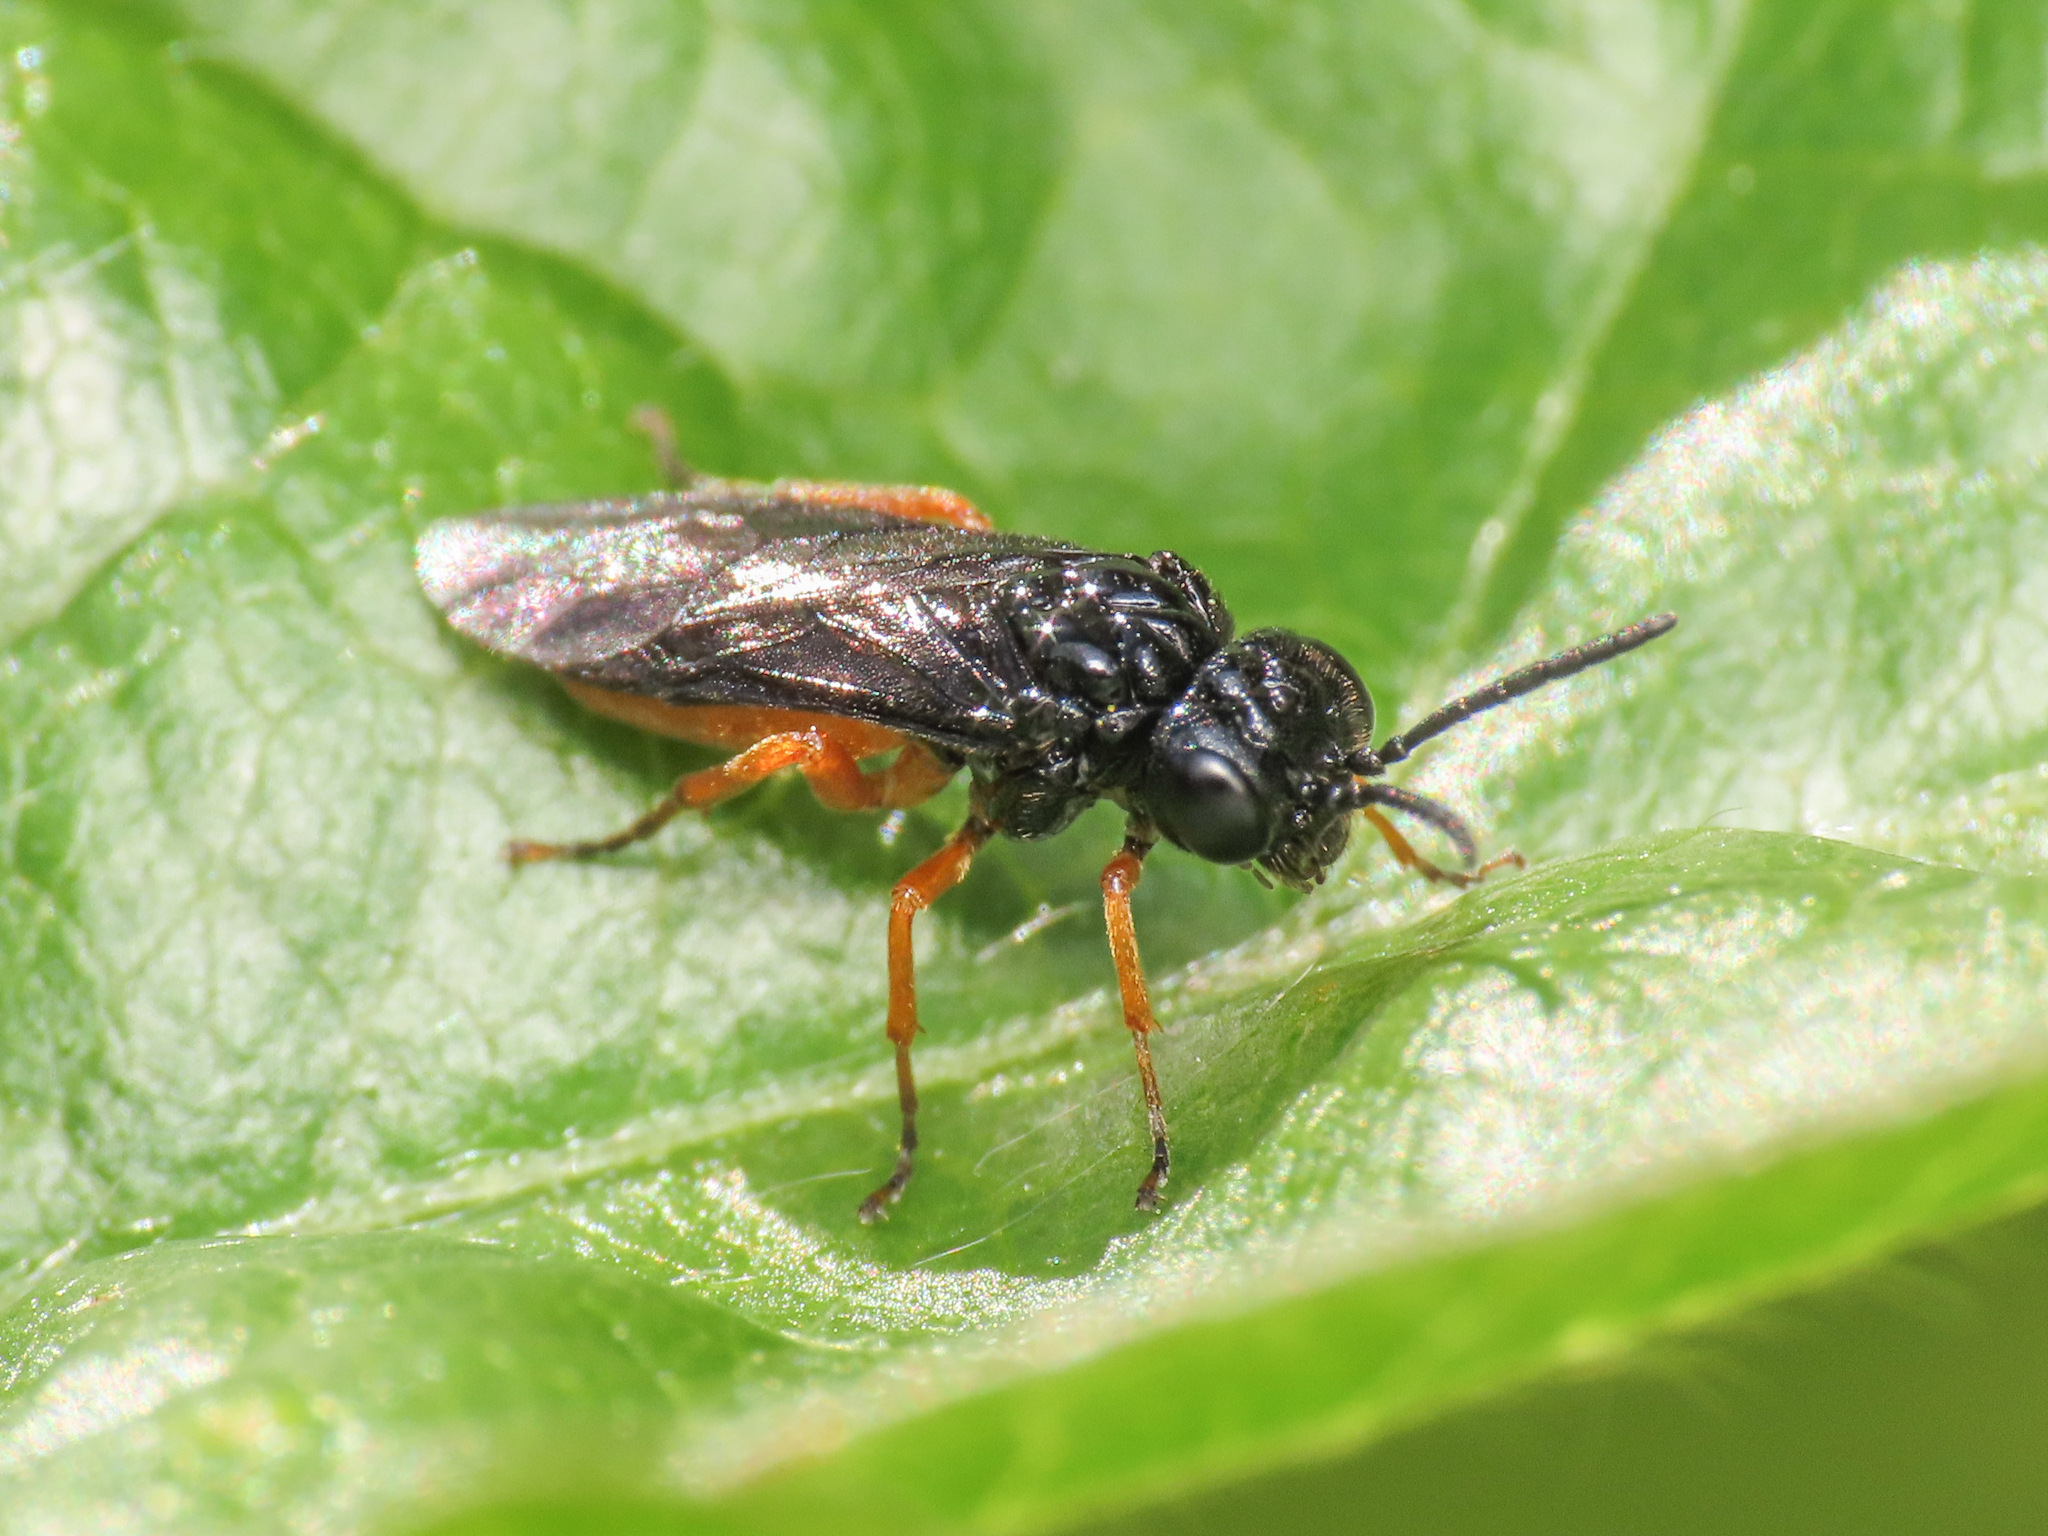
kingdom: Animalia
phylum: Arthropoda
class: Insecta
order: Hymenoptera
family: Tenthredinidae
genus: Eutomostethus
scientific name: Eutomostethus luteiventris
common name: Tenthredid wasp
